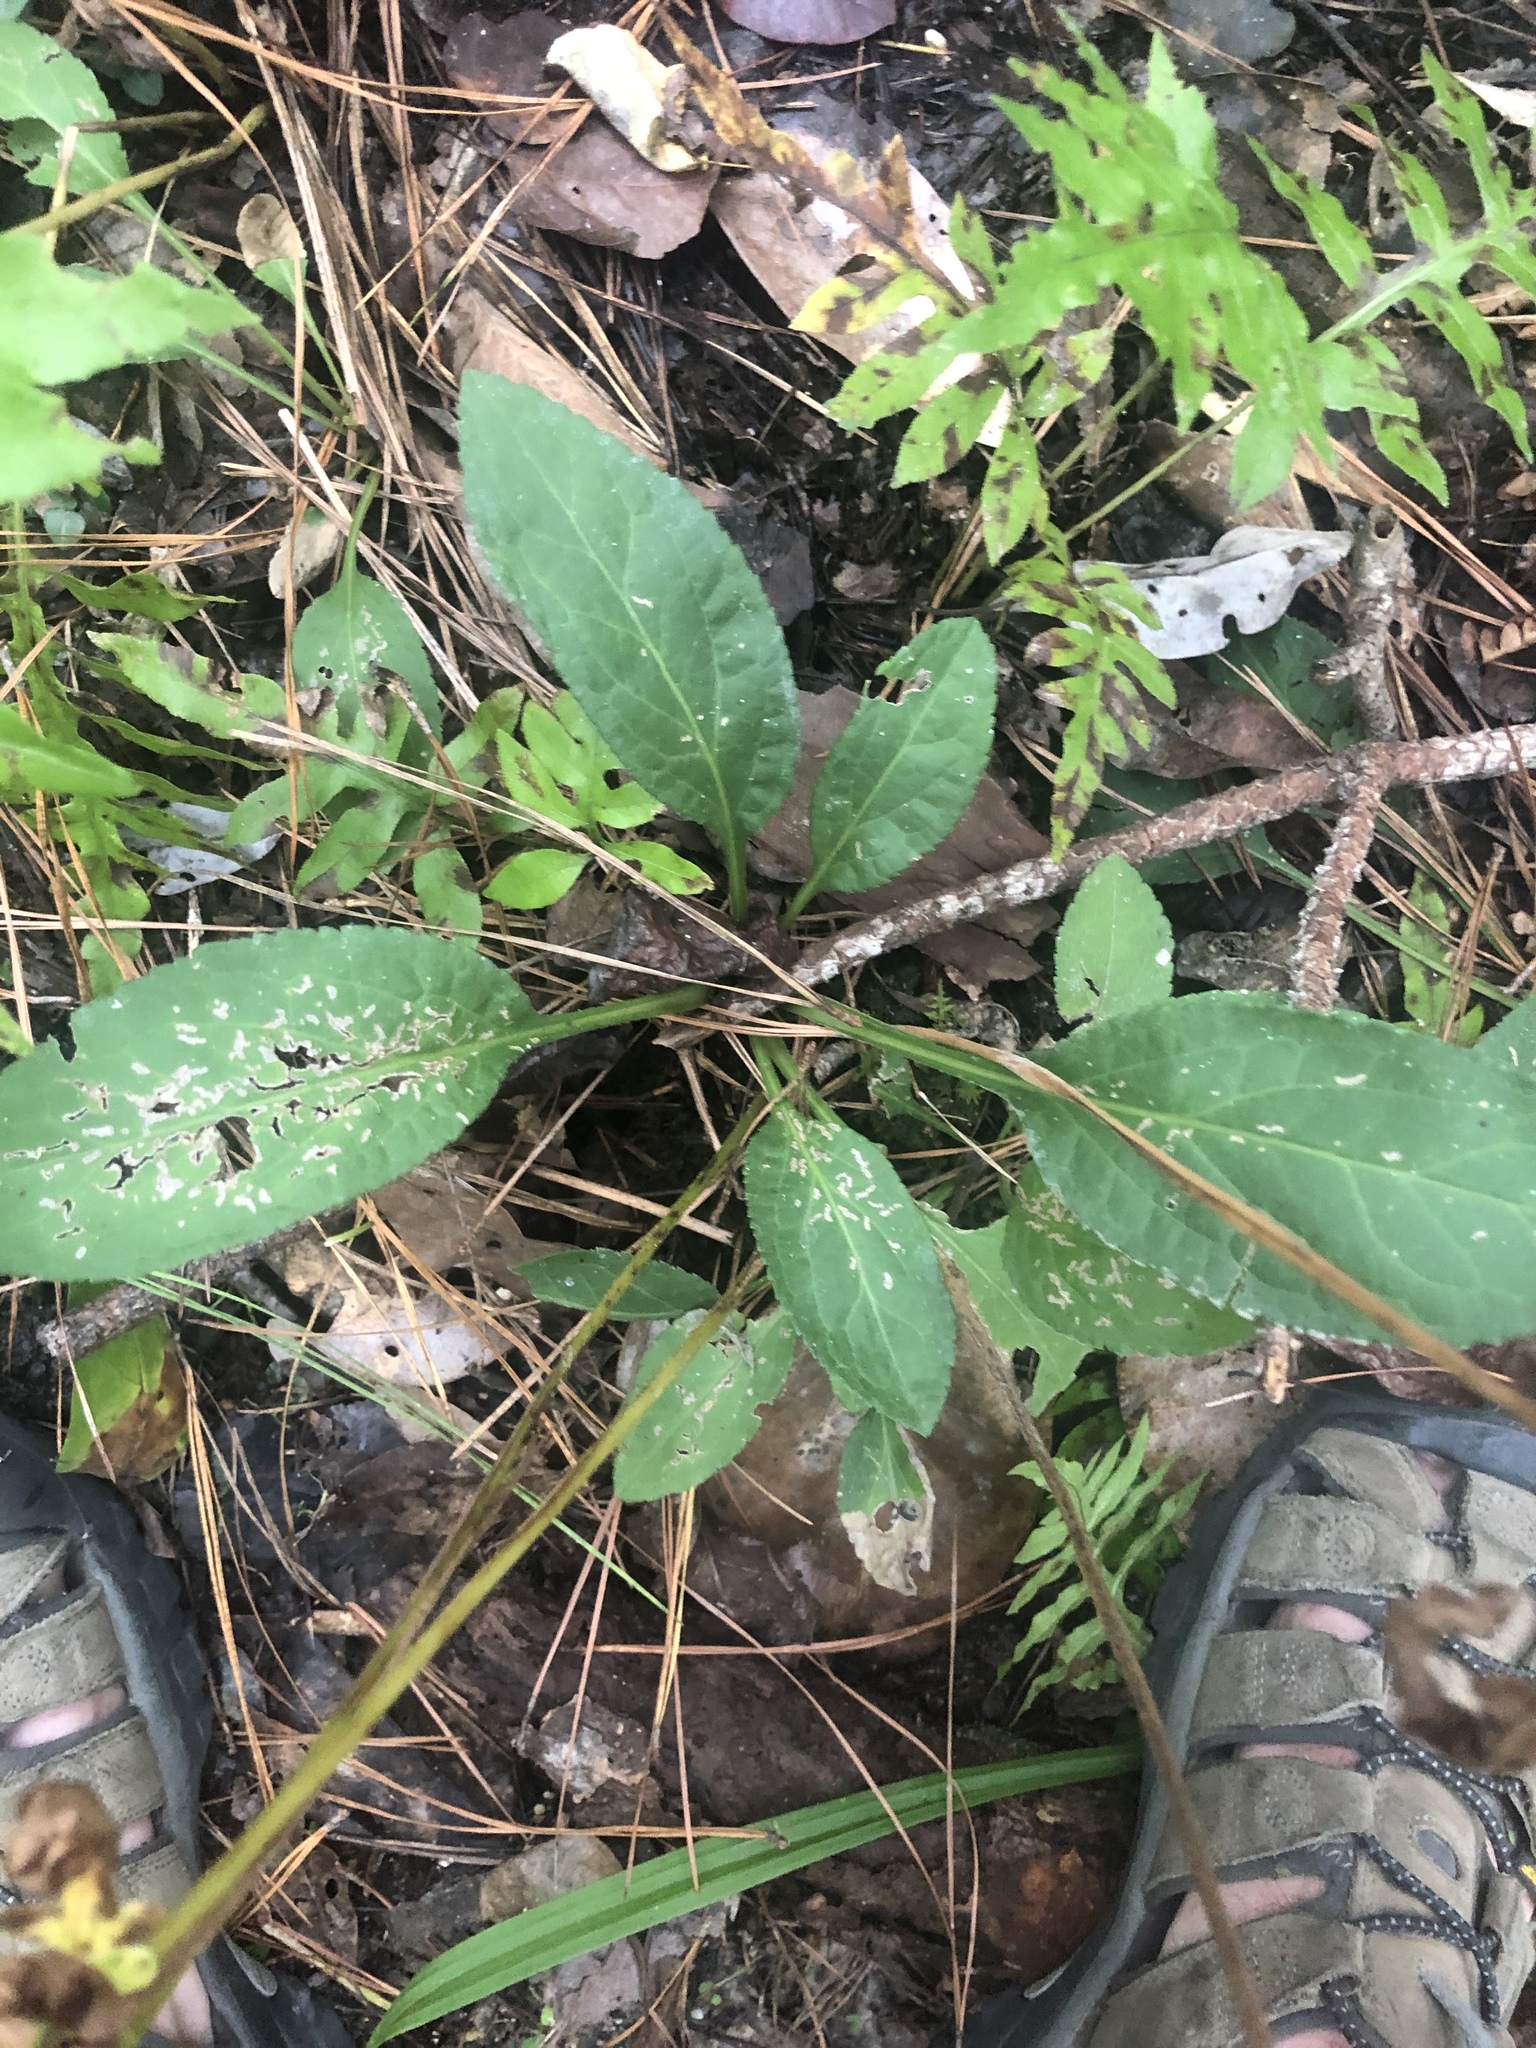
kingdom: Plantae
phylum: Tracheophyta
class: Magnoliopsida
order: Asterales
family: Asteraceae
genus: Solidago
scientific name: Solidago patula
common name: Rough-leaf goldenrod
